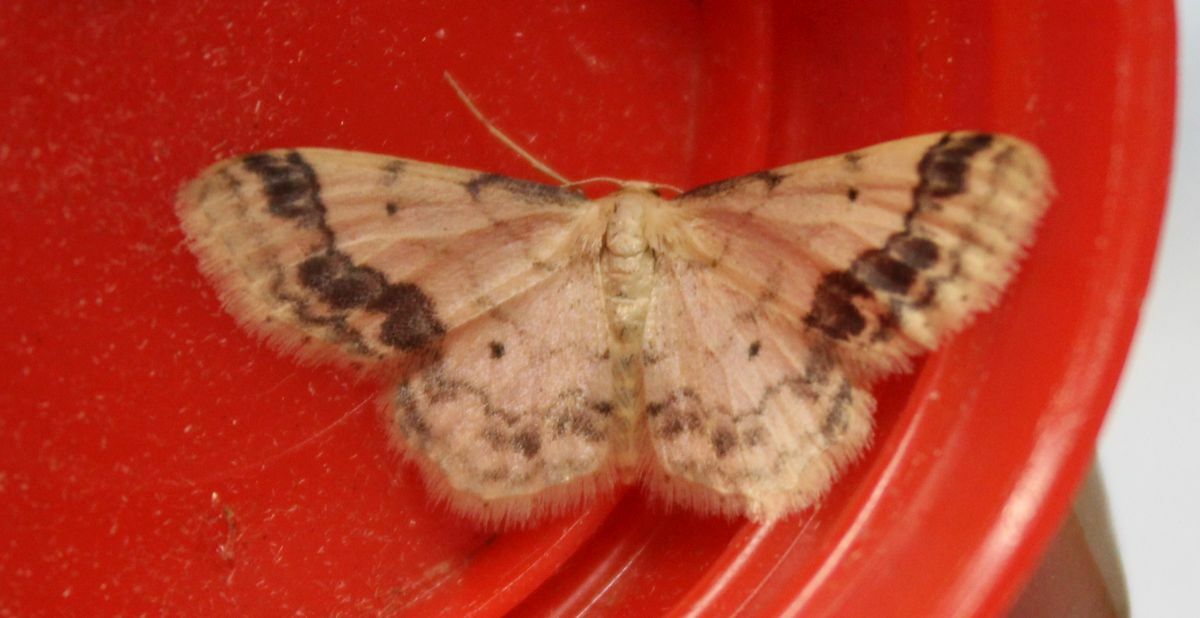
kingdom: Animalia
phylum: Arthropoda
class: Insecta
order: Lepidoptera
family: Geometridae
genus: Idaea
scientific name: Idaea trigeminata
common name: Treble brown spot
